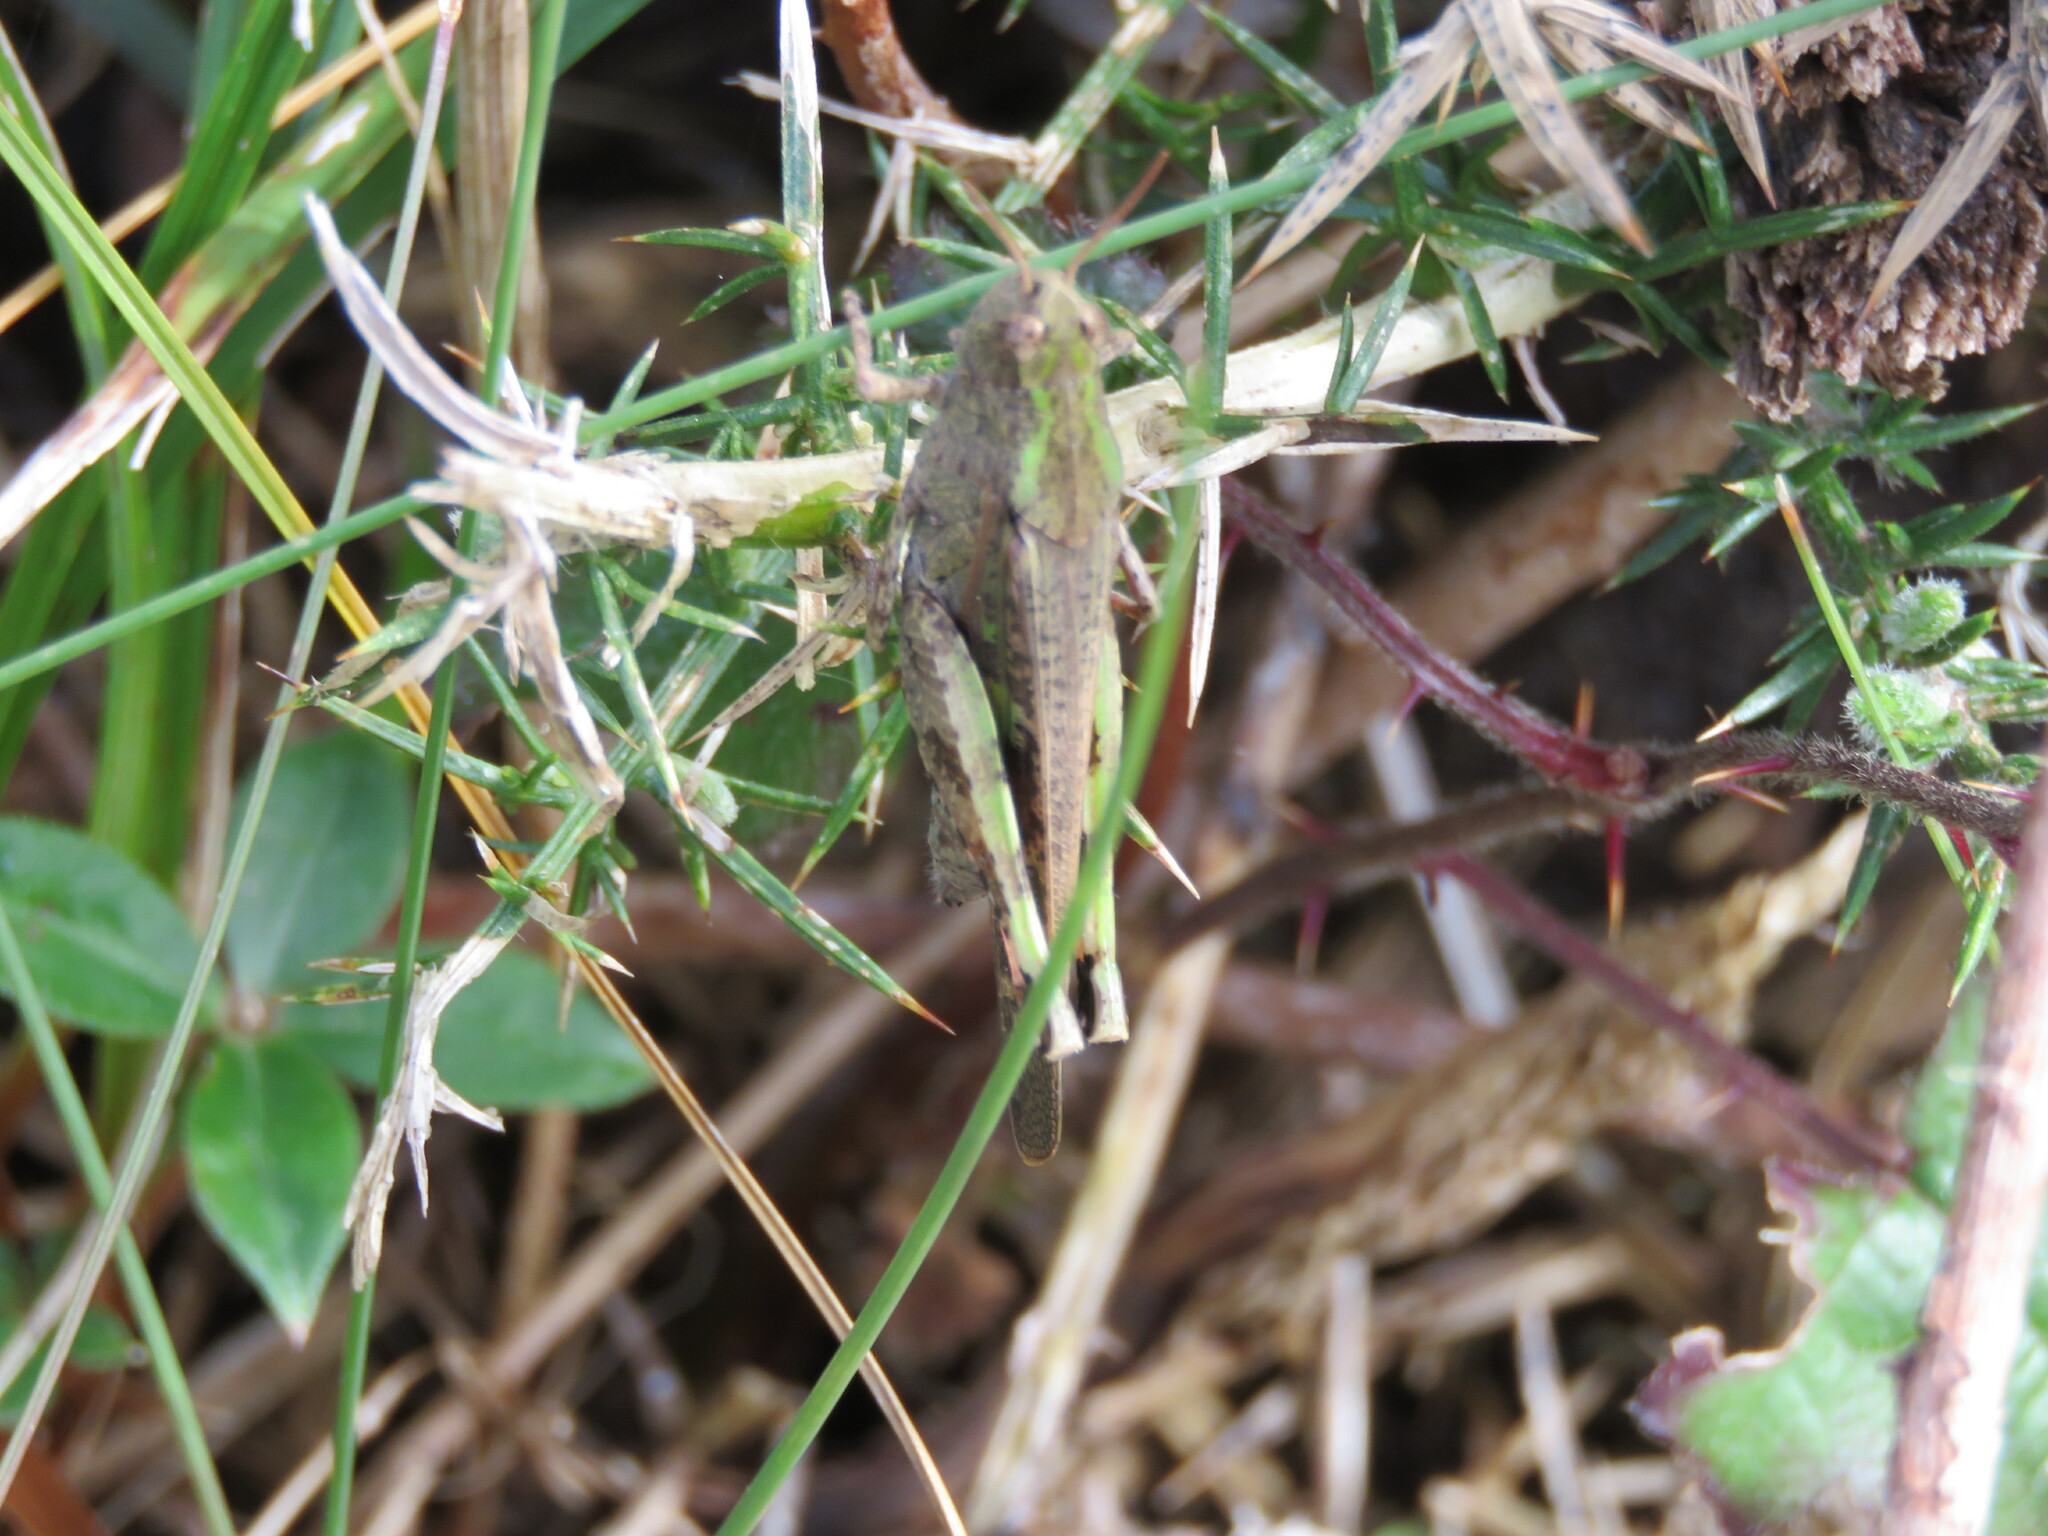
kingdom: Animalia
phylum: Arthropoda
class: Insecta
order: Orthoptera
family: Acrididae
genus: Aiolopus
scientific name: Aiolopus strepens
